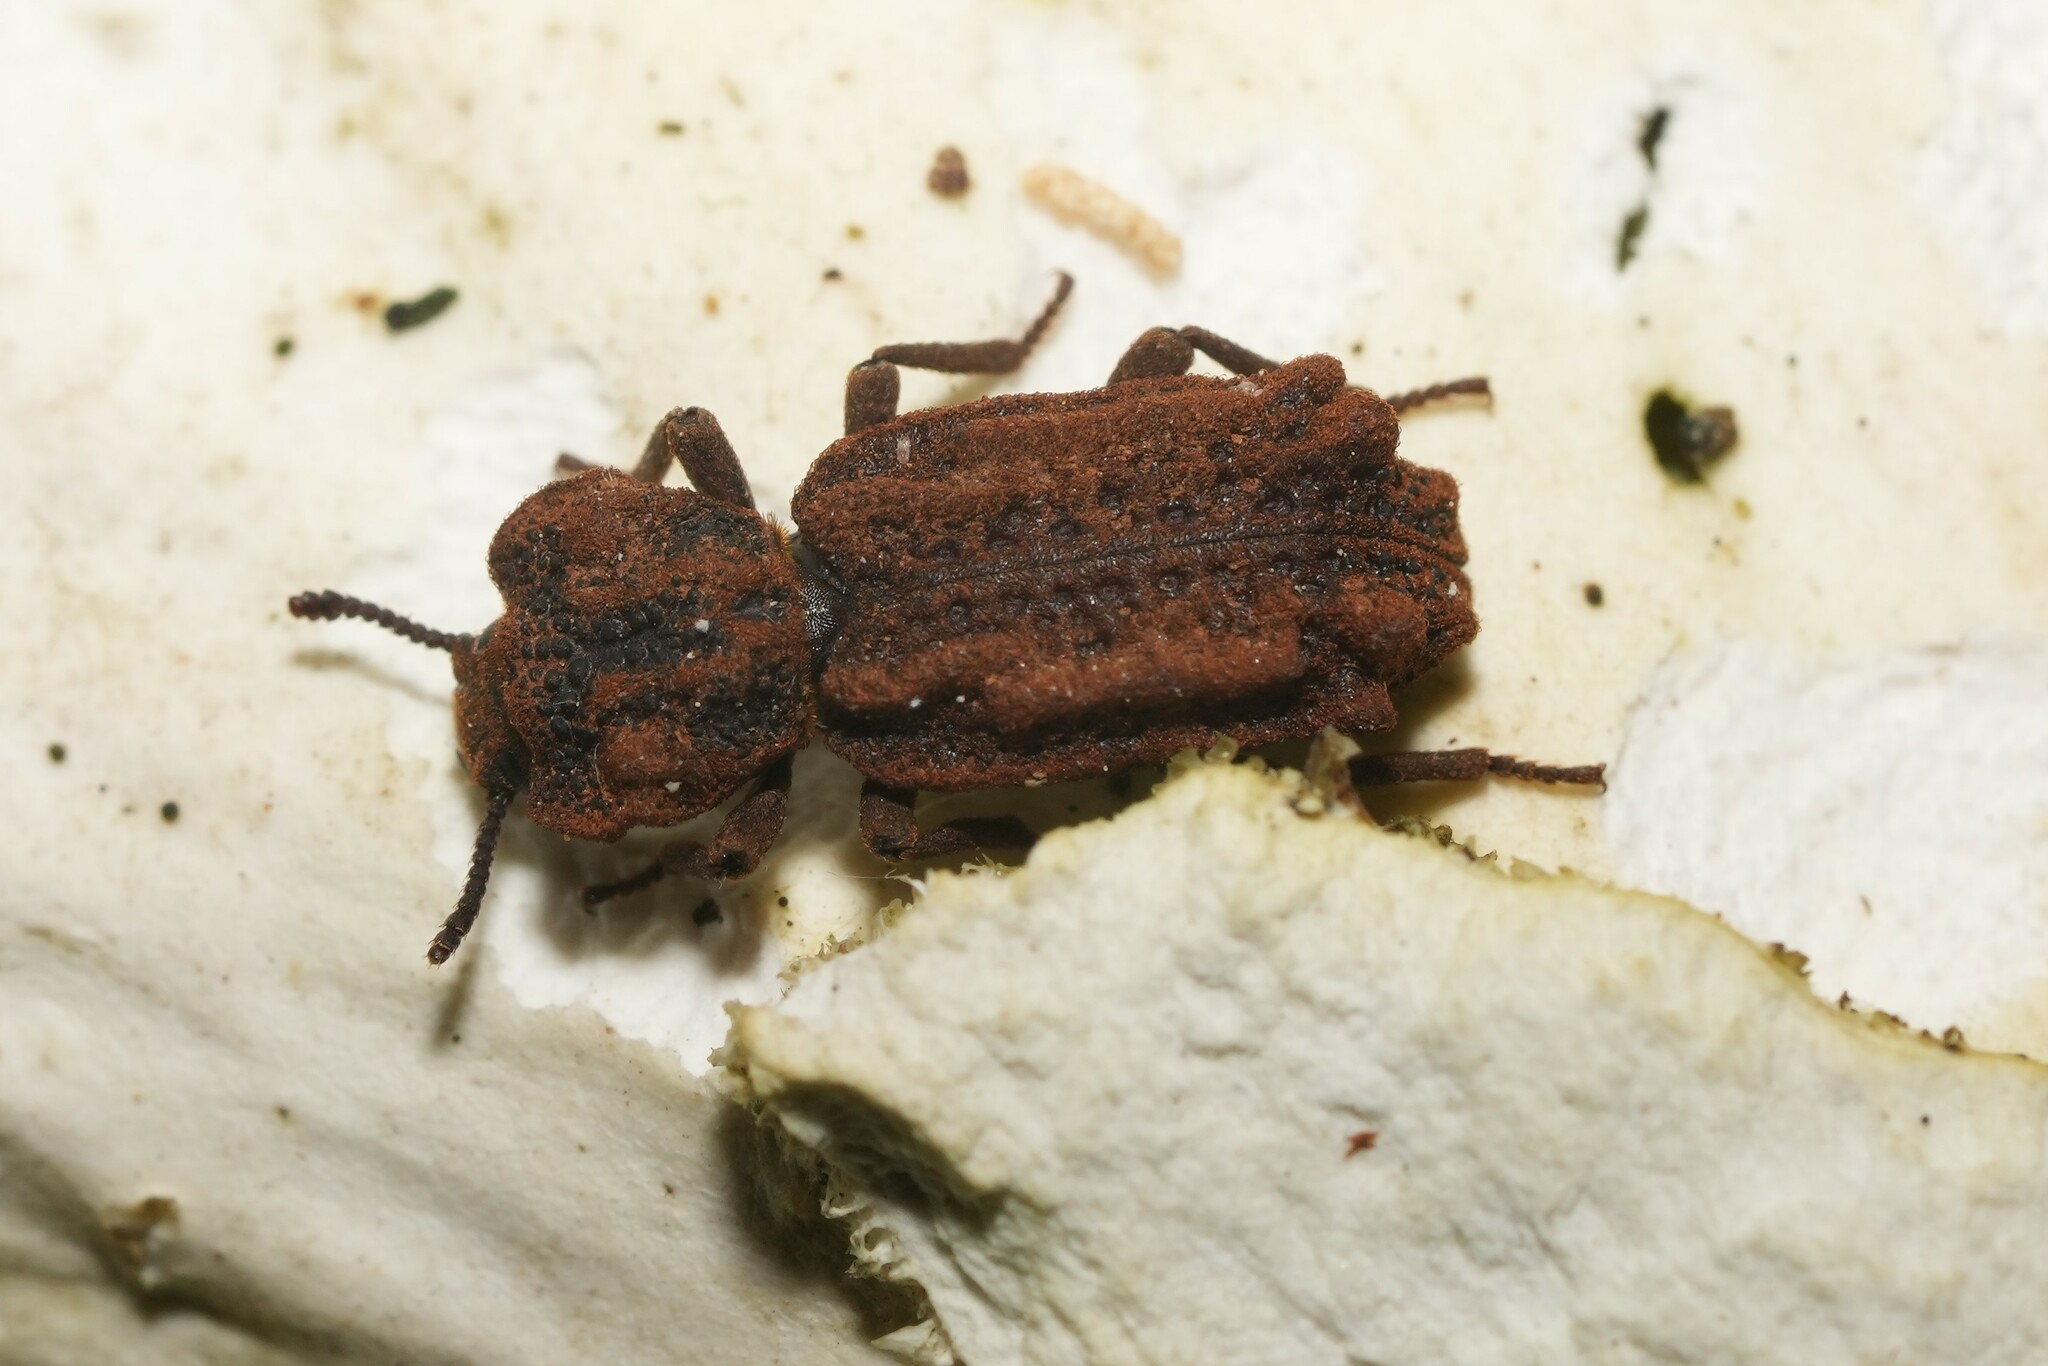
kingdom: Animalia
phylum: Arthropoda
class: Insecta
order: Coleoptera
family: Zopheridae
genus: Phellopsis
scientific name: Phellopsis obcordata
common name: Eastern ironclad beetle
